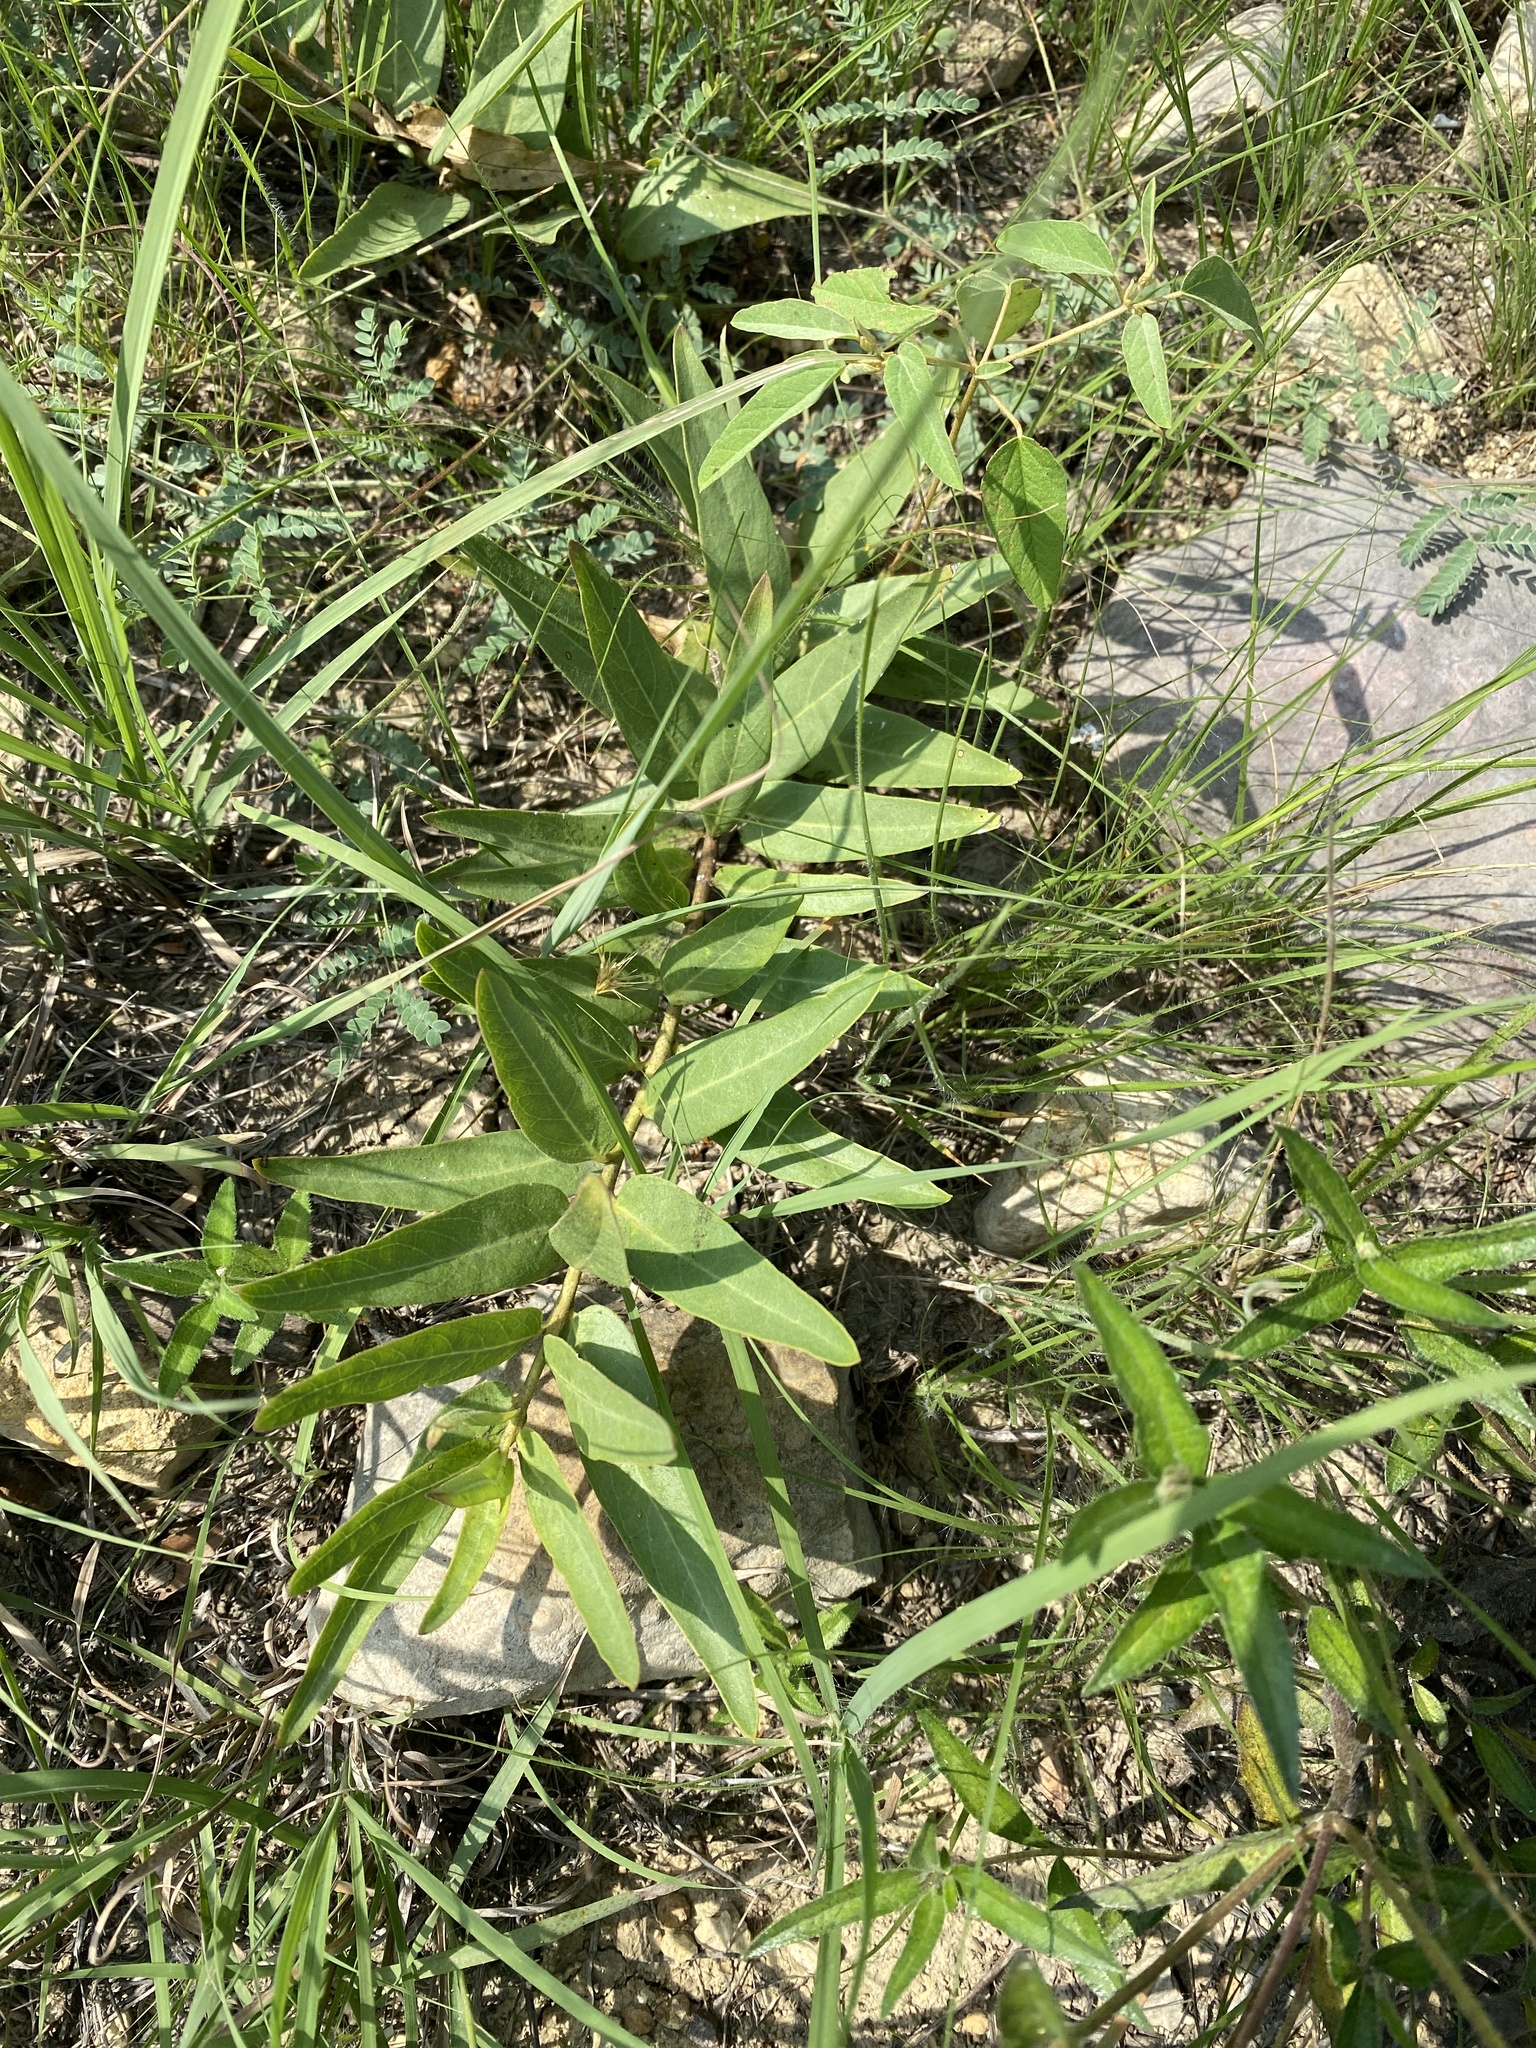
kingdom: Plantae
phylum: Tracheophyta
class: Magnoliopsida
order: Gentianales
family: Apocynaceae
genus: Asclepias
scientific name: Asclepias asperula
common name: Antelope horns
